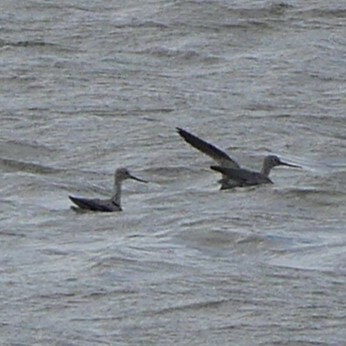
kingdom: Animalia
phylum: Chordata
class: Aves
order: Charadriiformes
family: Scolopacidae
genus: Tringa
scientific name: Tringa melanoleuca
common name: Greater yellowlegs
